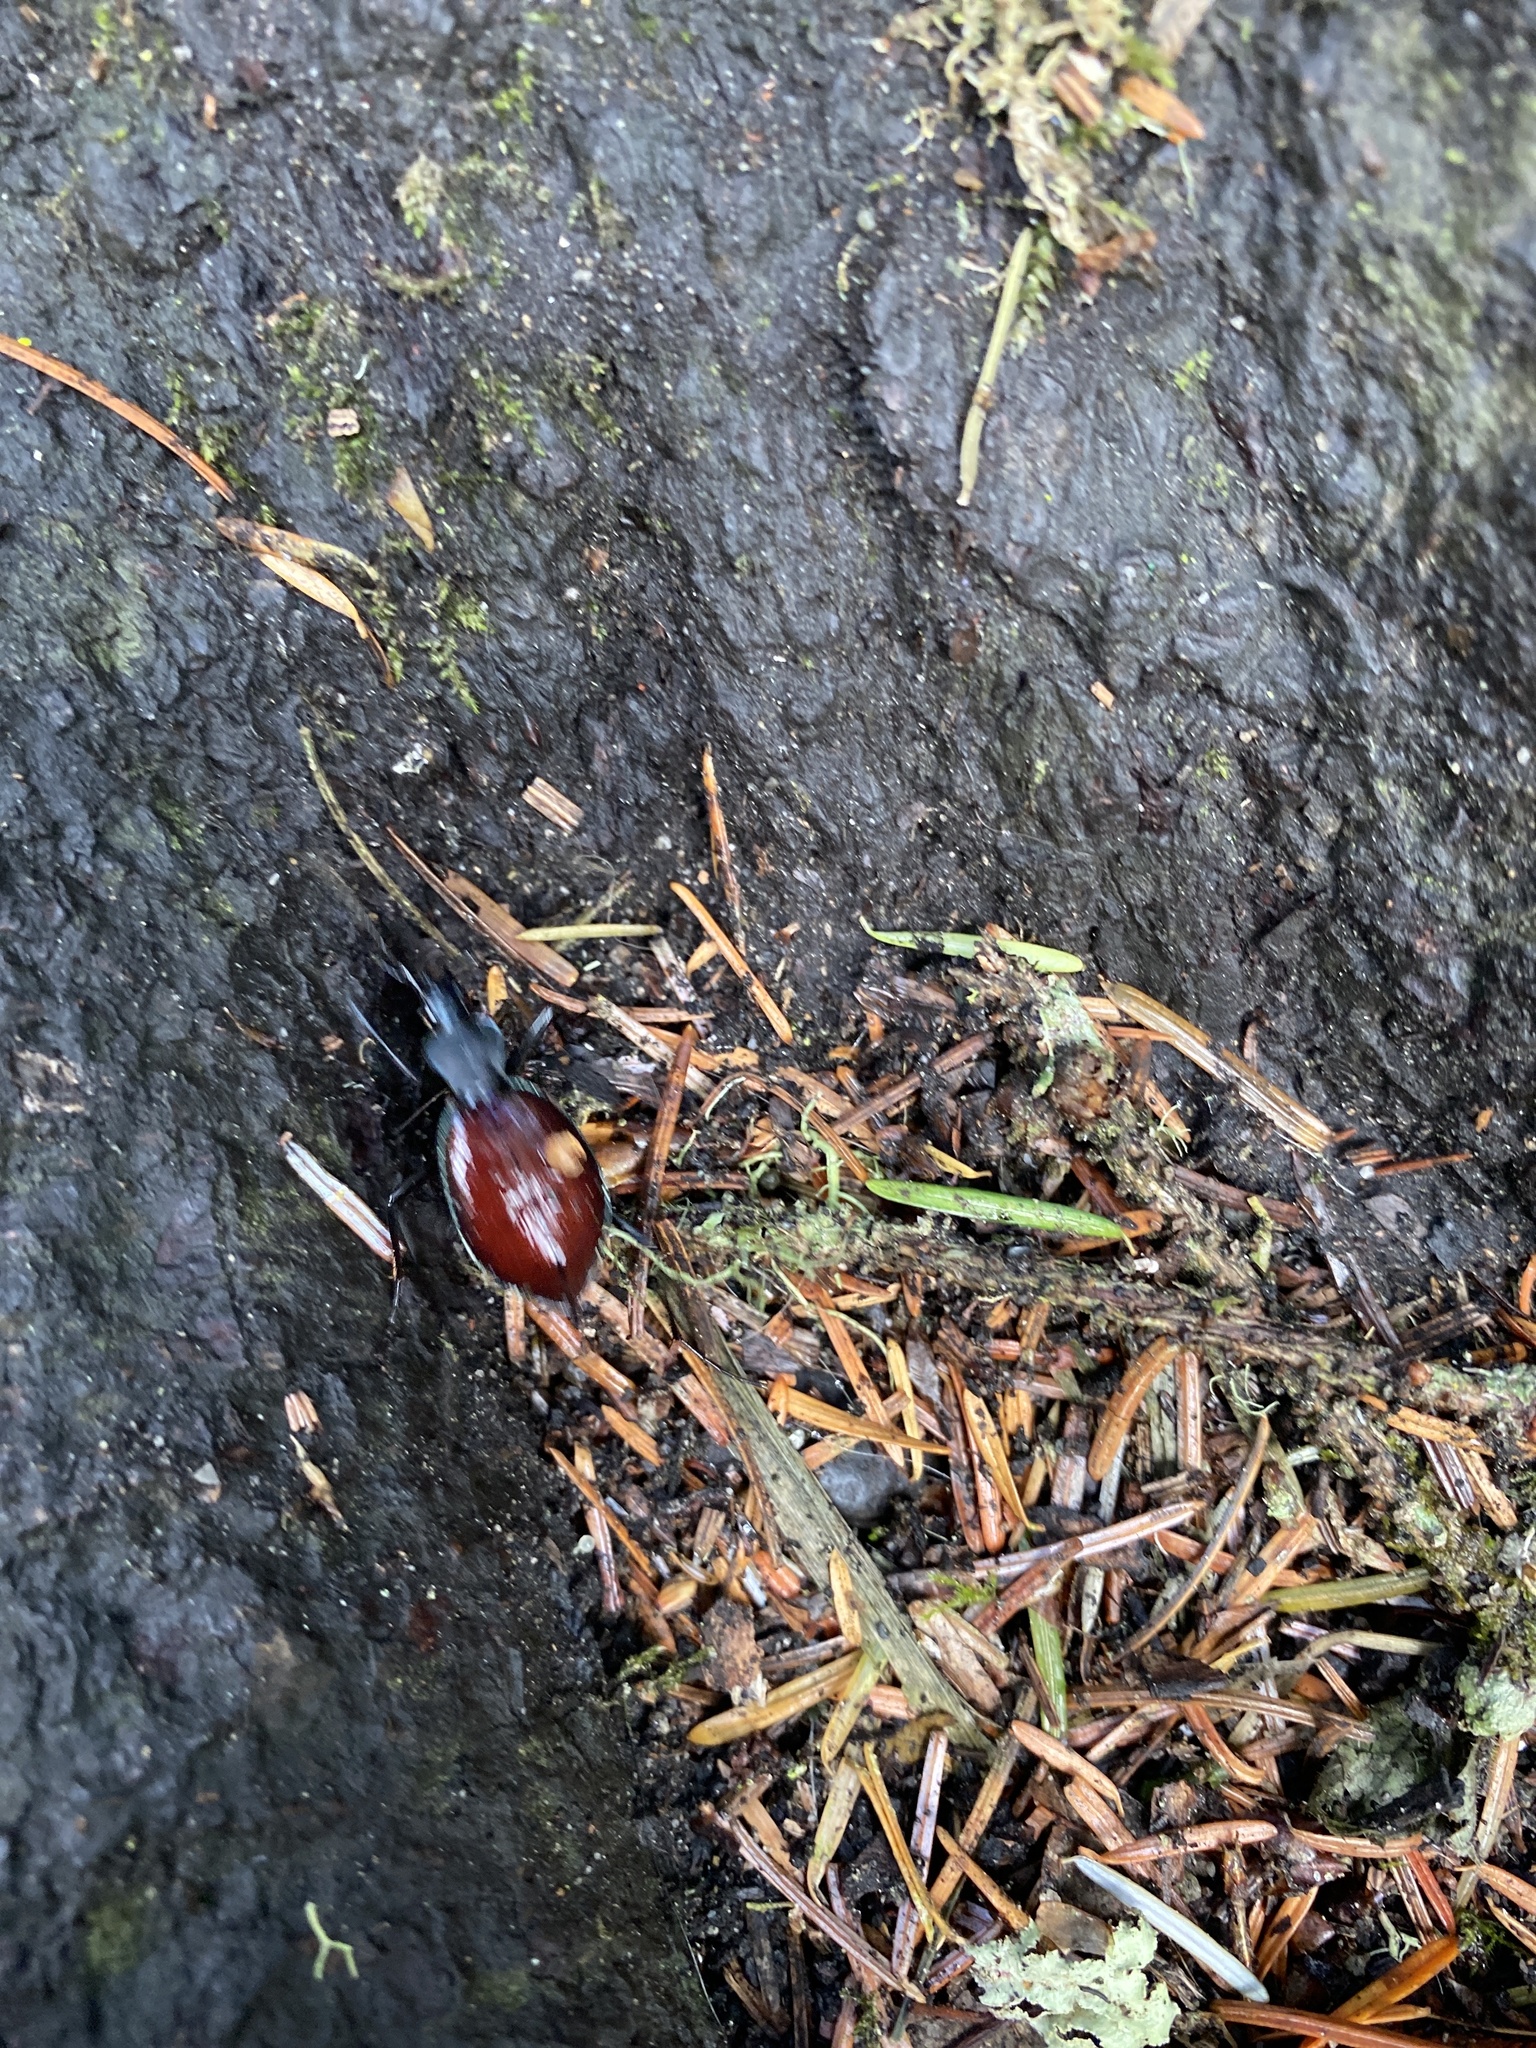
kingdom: Animalia
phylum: Arthropoda
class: Insecta
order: Coleoptera
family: Carabidae
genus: Scaphinotus
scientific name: Scaphinotus angusticollis
